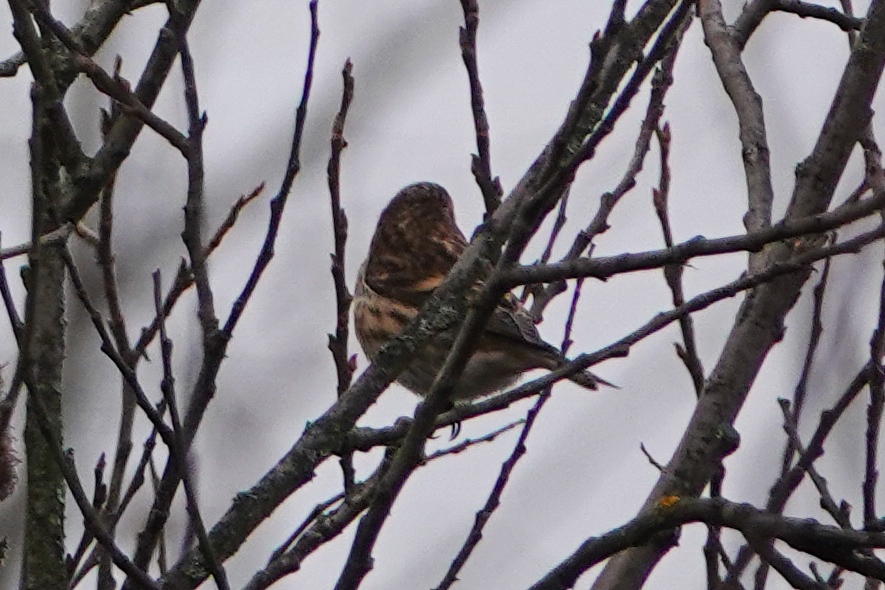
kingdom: Animalia
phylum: Chordata
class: Aves
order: Passeriformes
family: Fringillidae
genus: Acanthis
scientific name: Acanthis flammea
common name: Common redpoll
